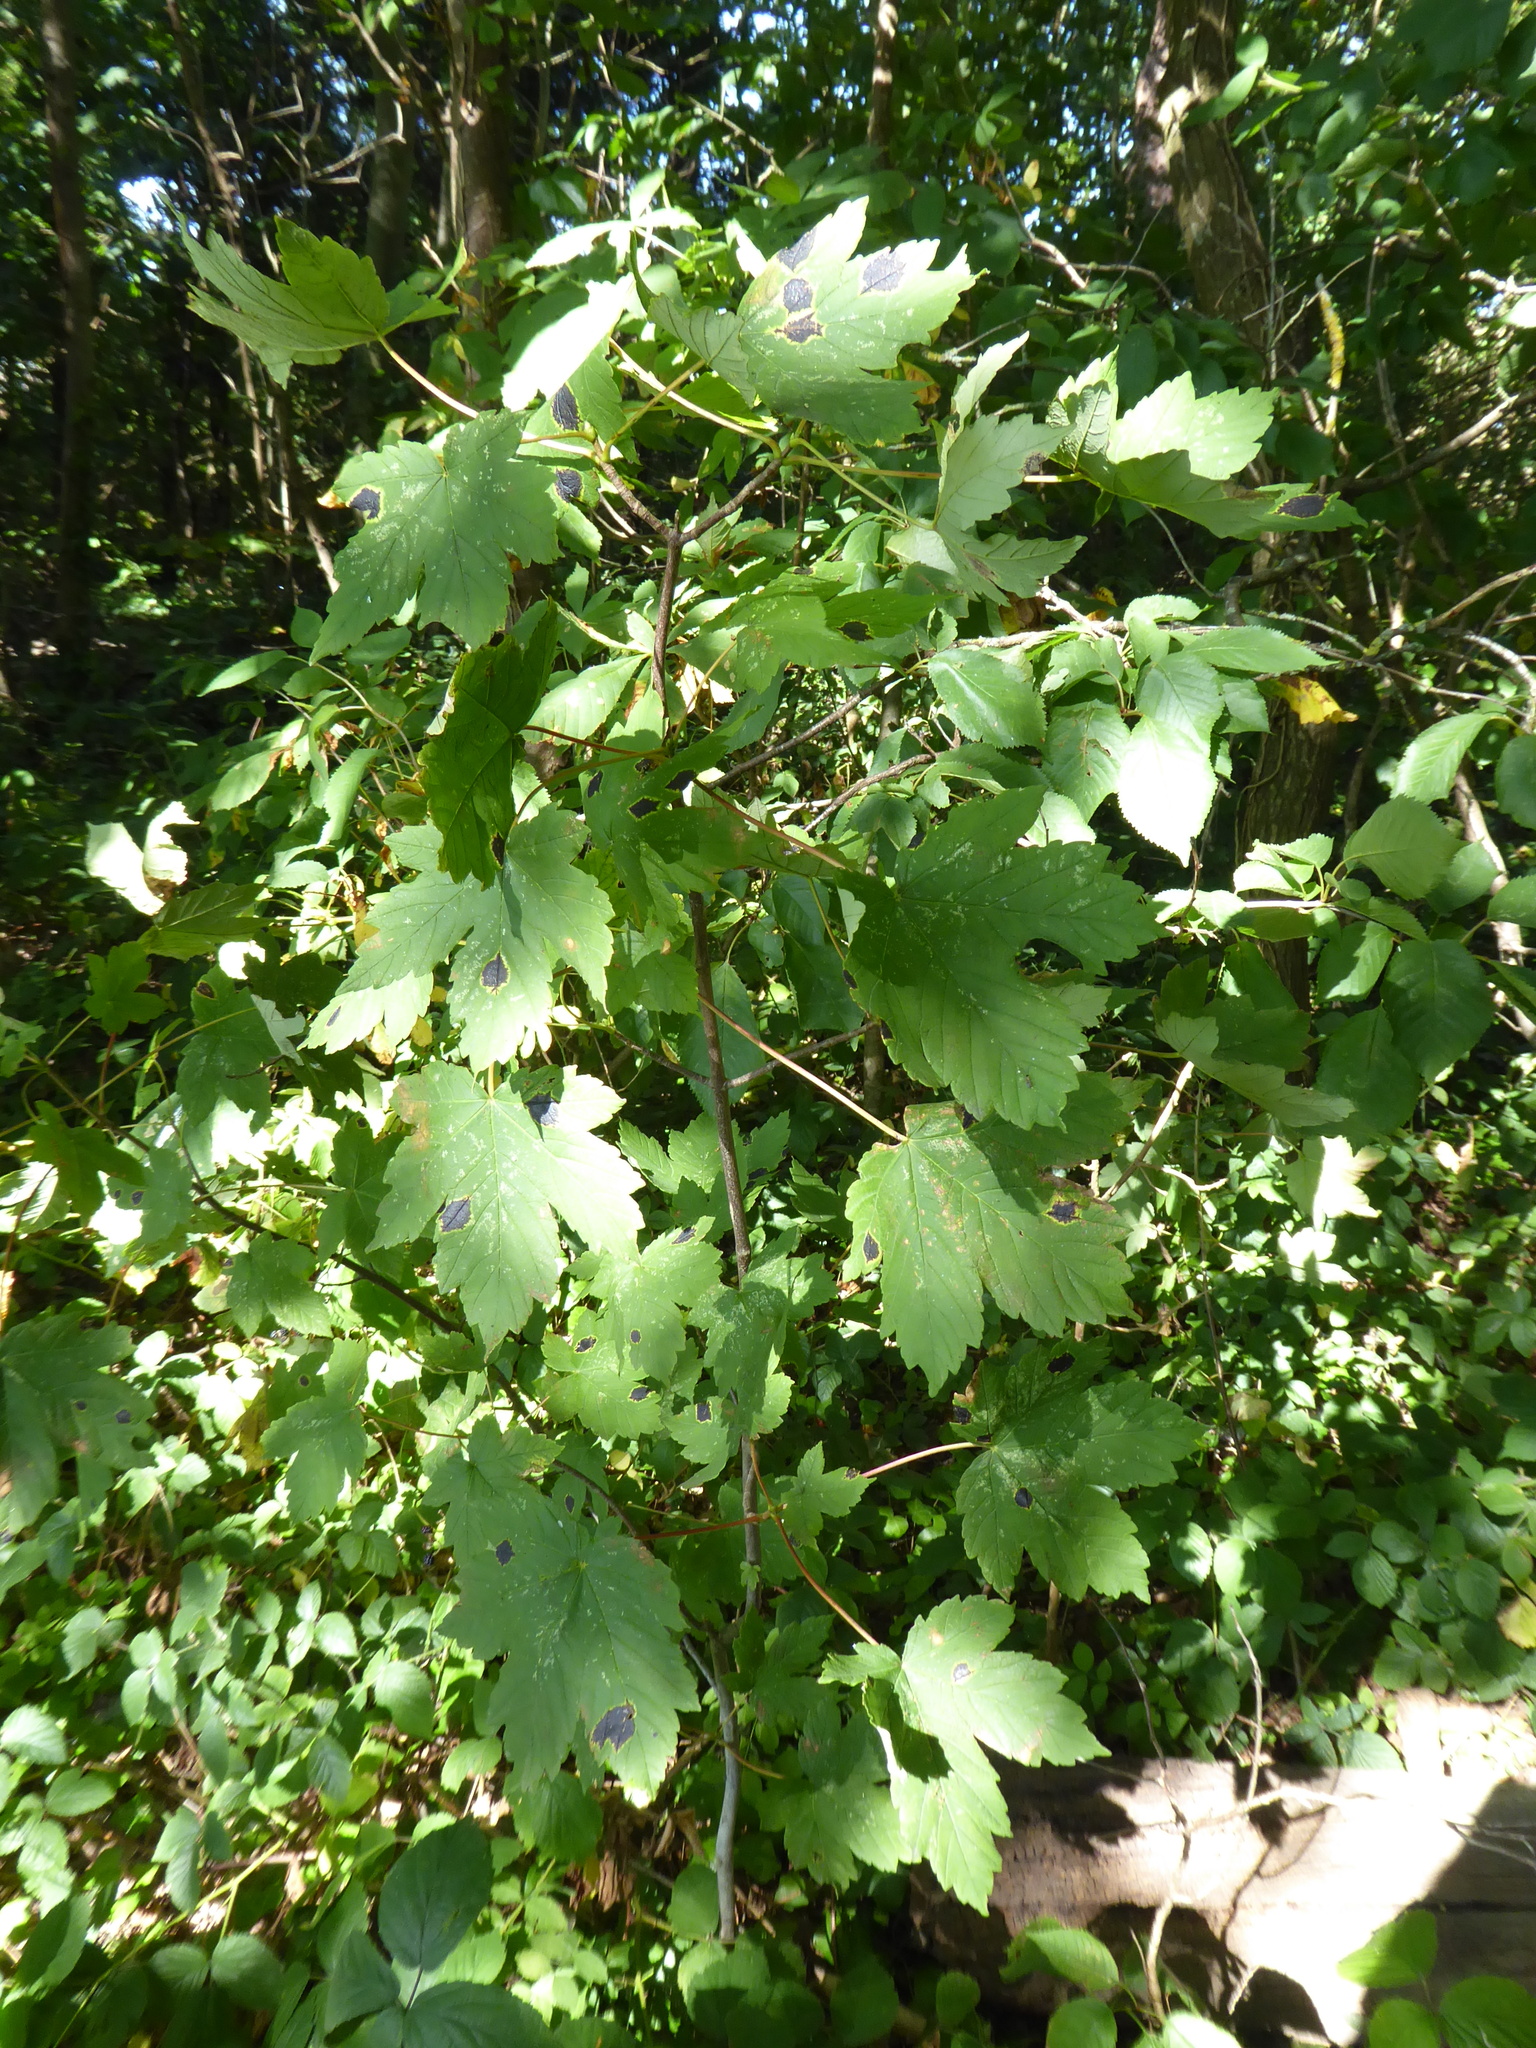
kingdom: Fungi
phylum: Ascomycota
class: Leotiomycetes
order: Rhytismatales
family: Rhytismataceae
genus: Rhytisma
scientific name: Rhytisma acerinum
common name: European tar spot
